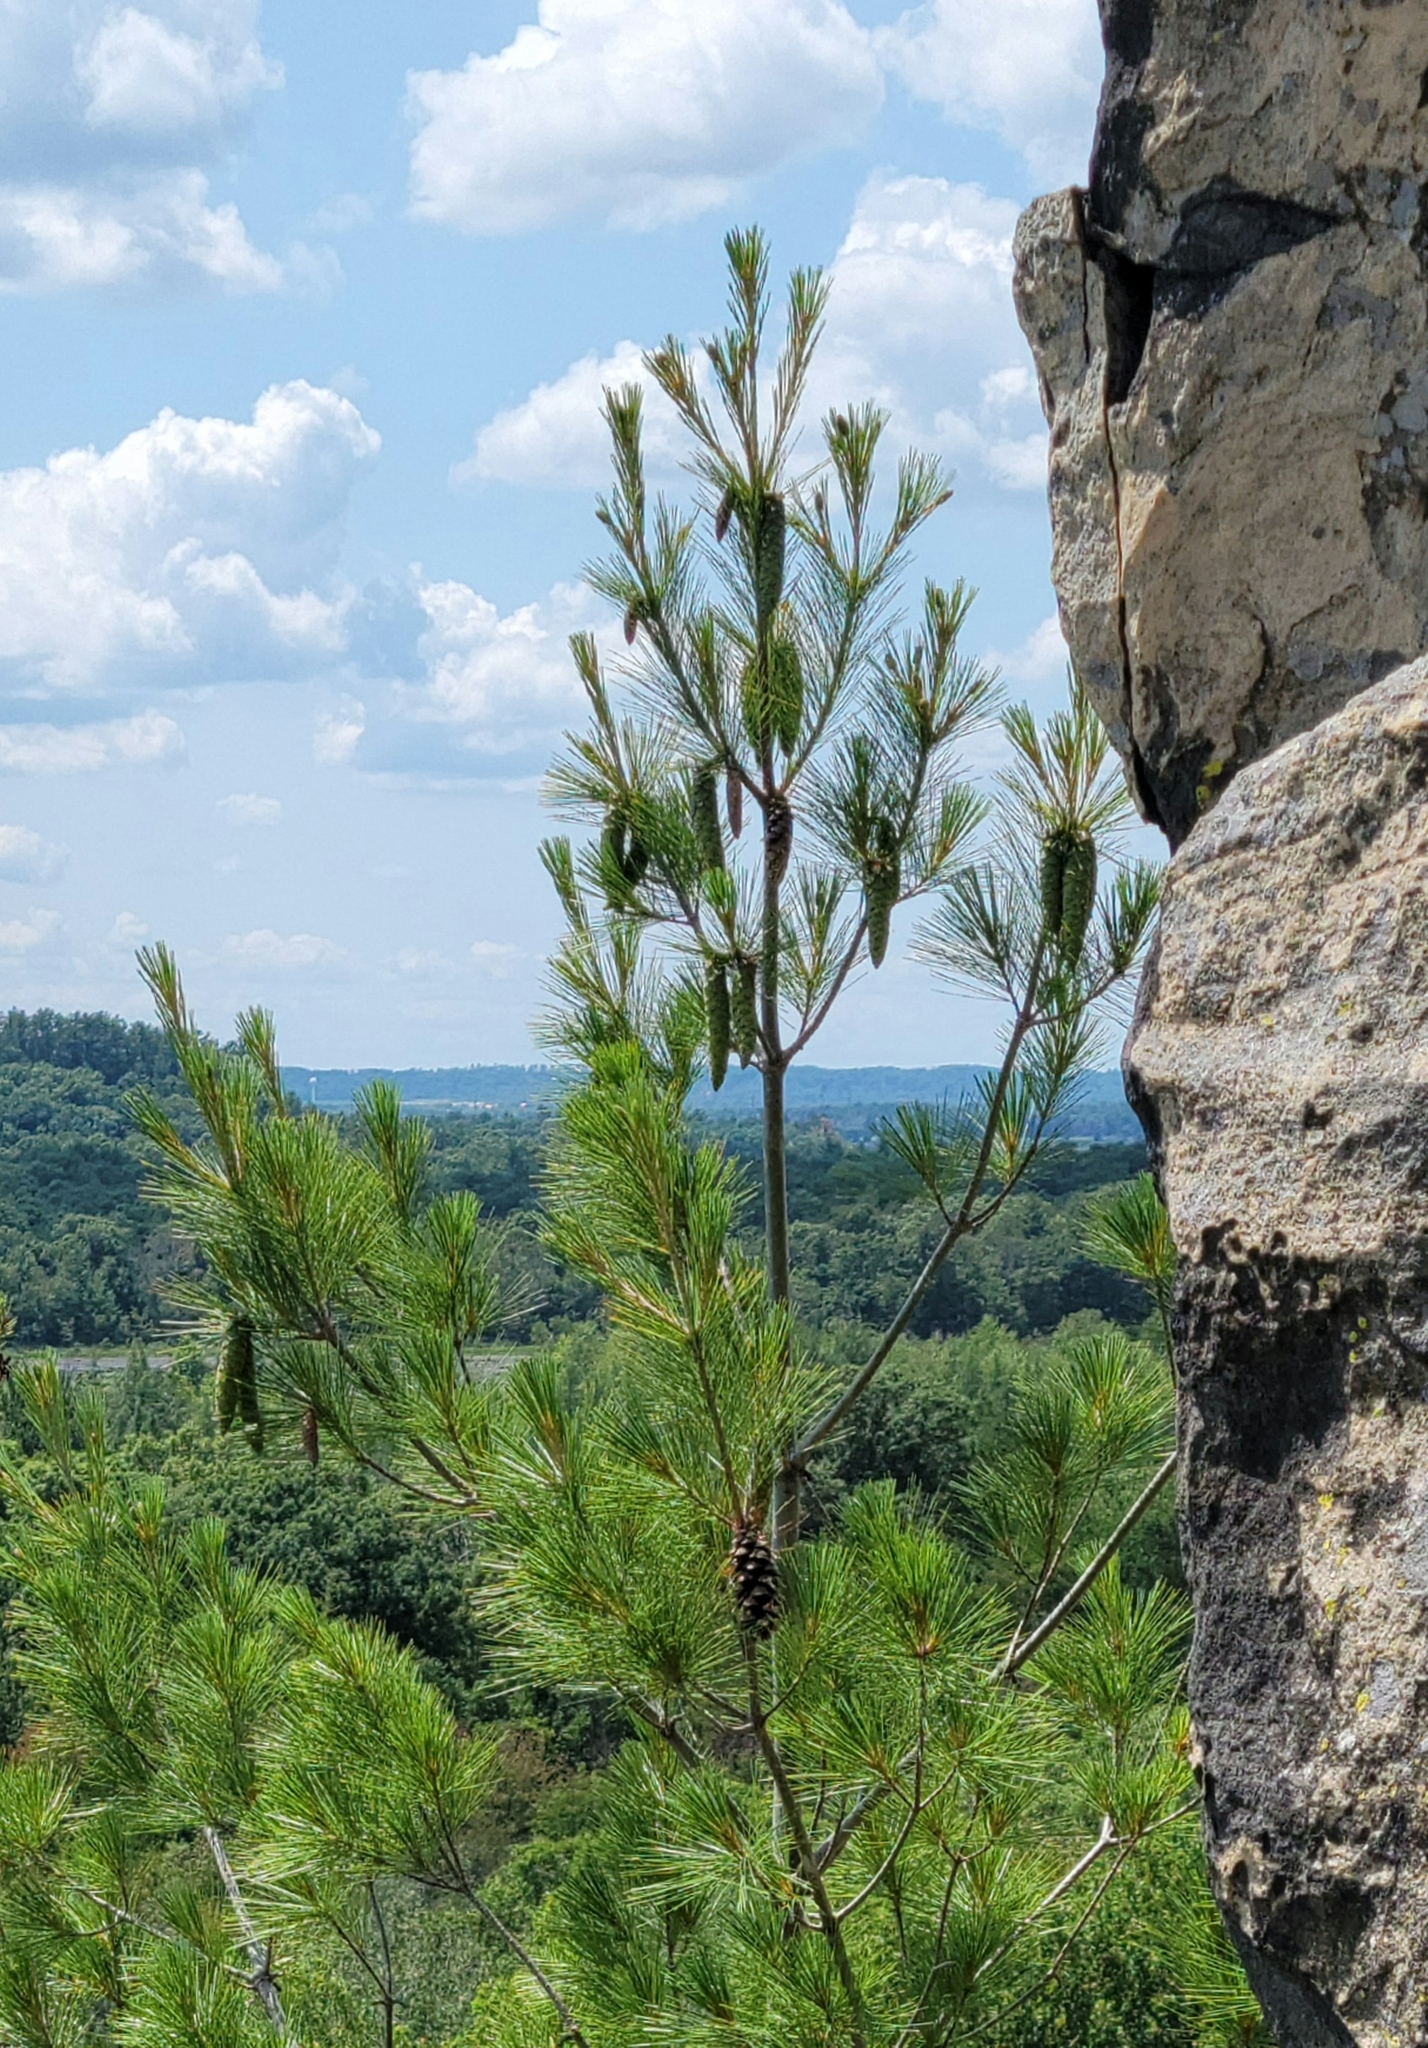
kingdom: Plantae
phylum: Tracheophyta
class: Pinopsida
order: Pinales
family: Pinaceae
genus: Pinus
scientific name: Pinus strobus
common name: Weymouth pine
